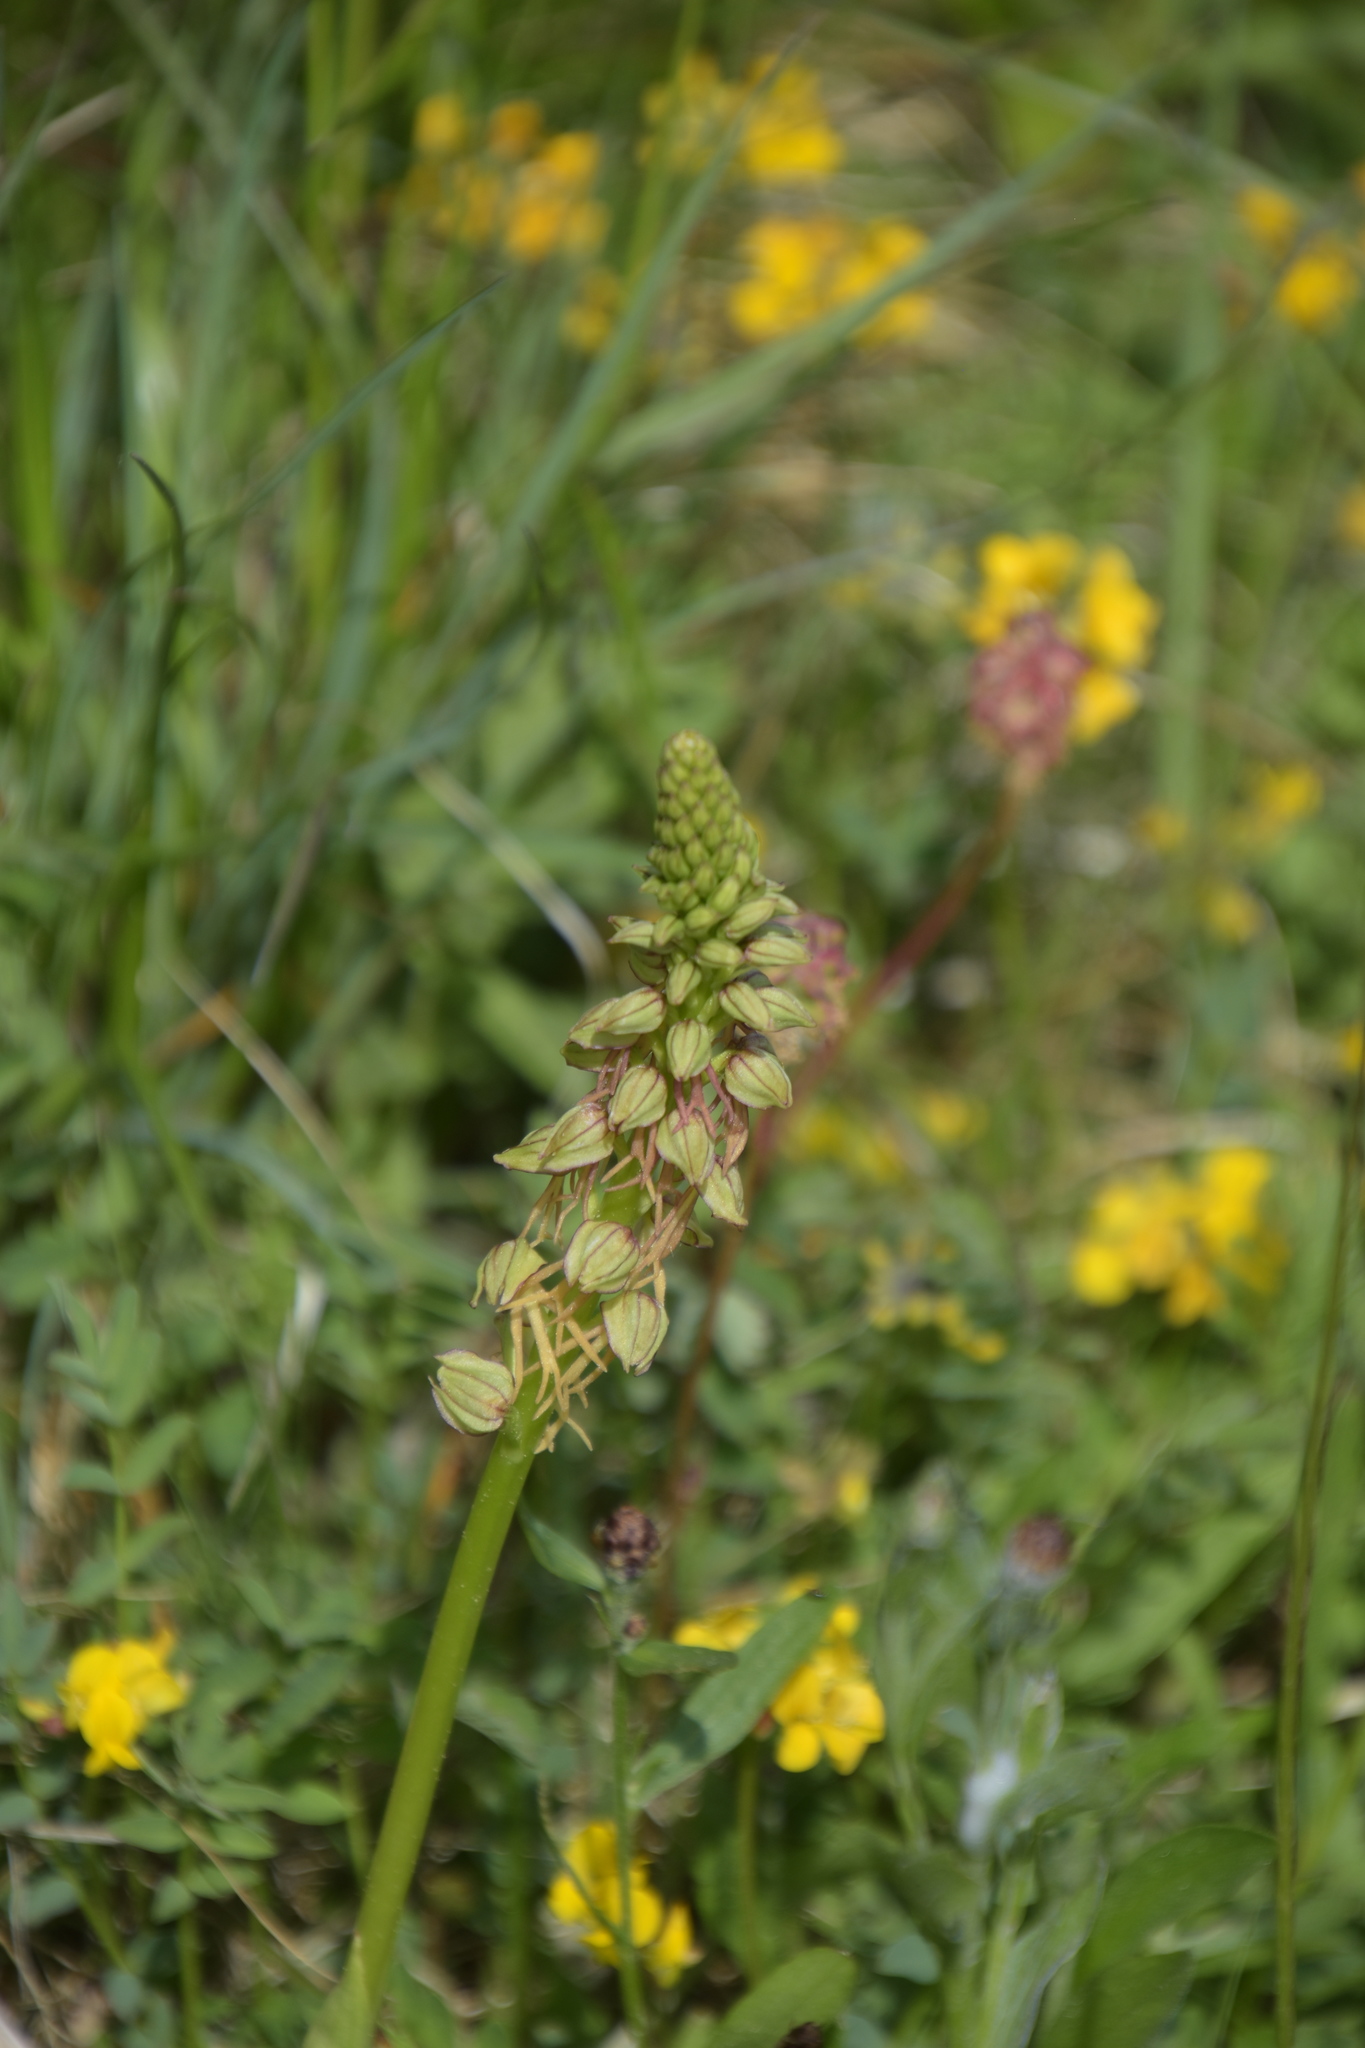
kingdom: Plantae
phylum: Tracheophyta
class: Liliopsida
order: Asparagales
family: Orchidaceae
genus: Orchis
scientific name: Orchis anthropophora
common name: Man orchid
